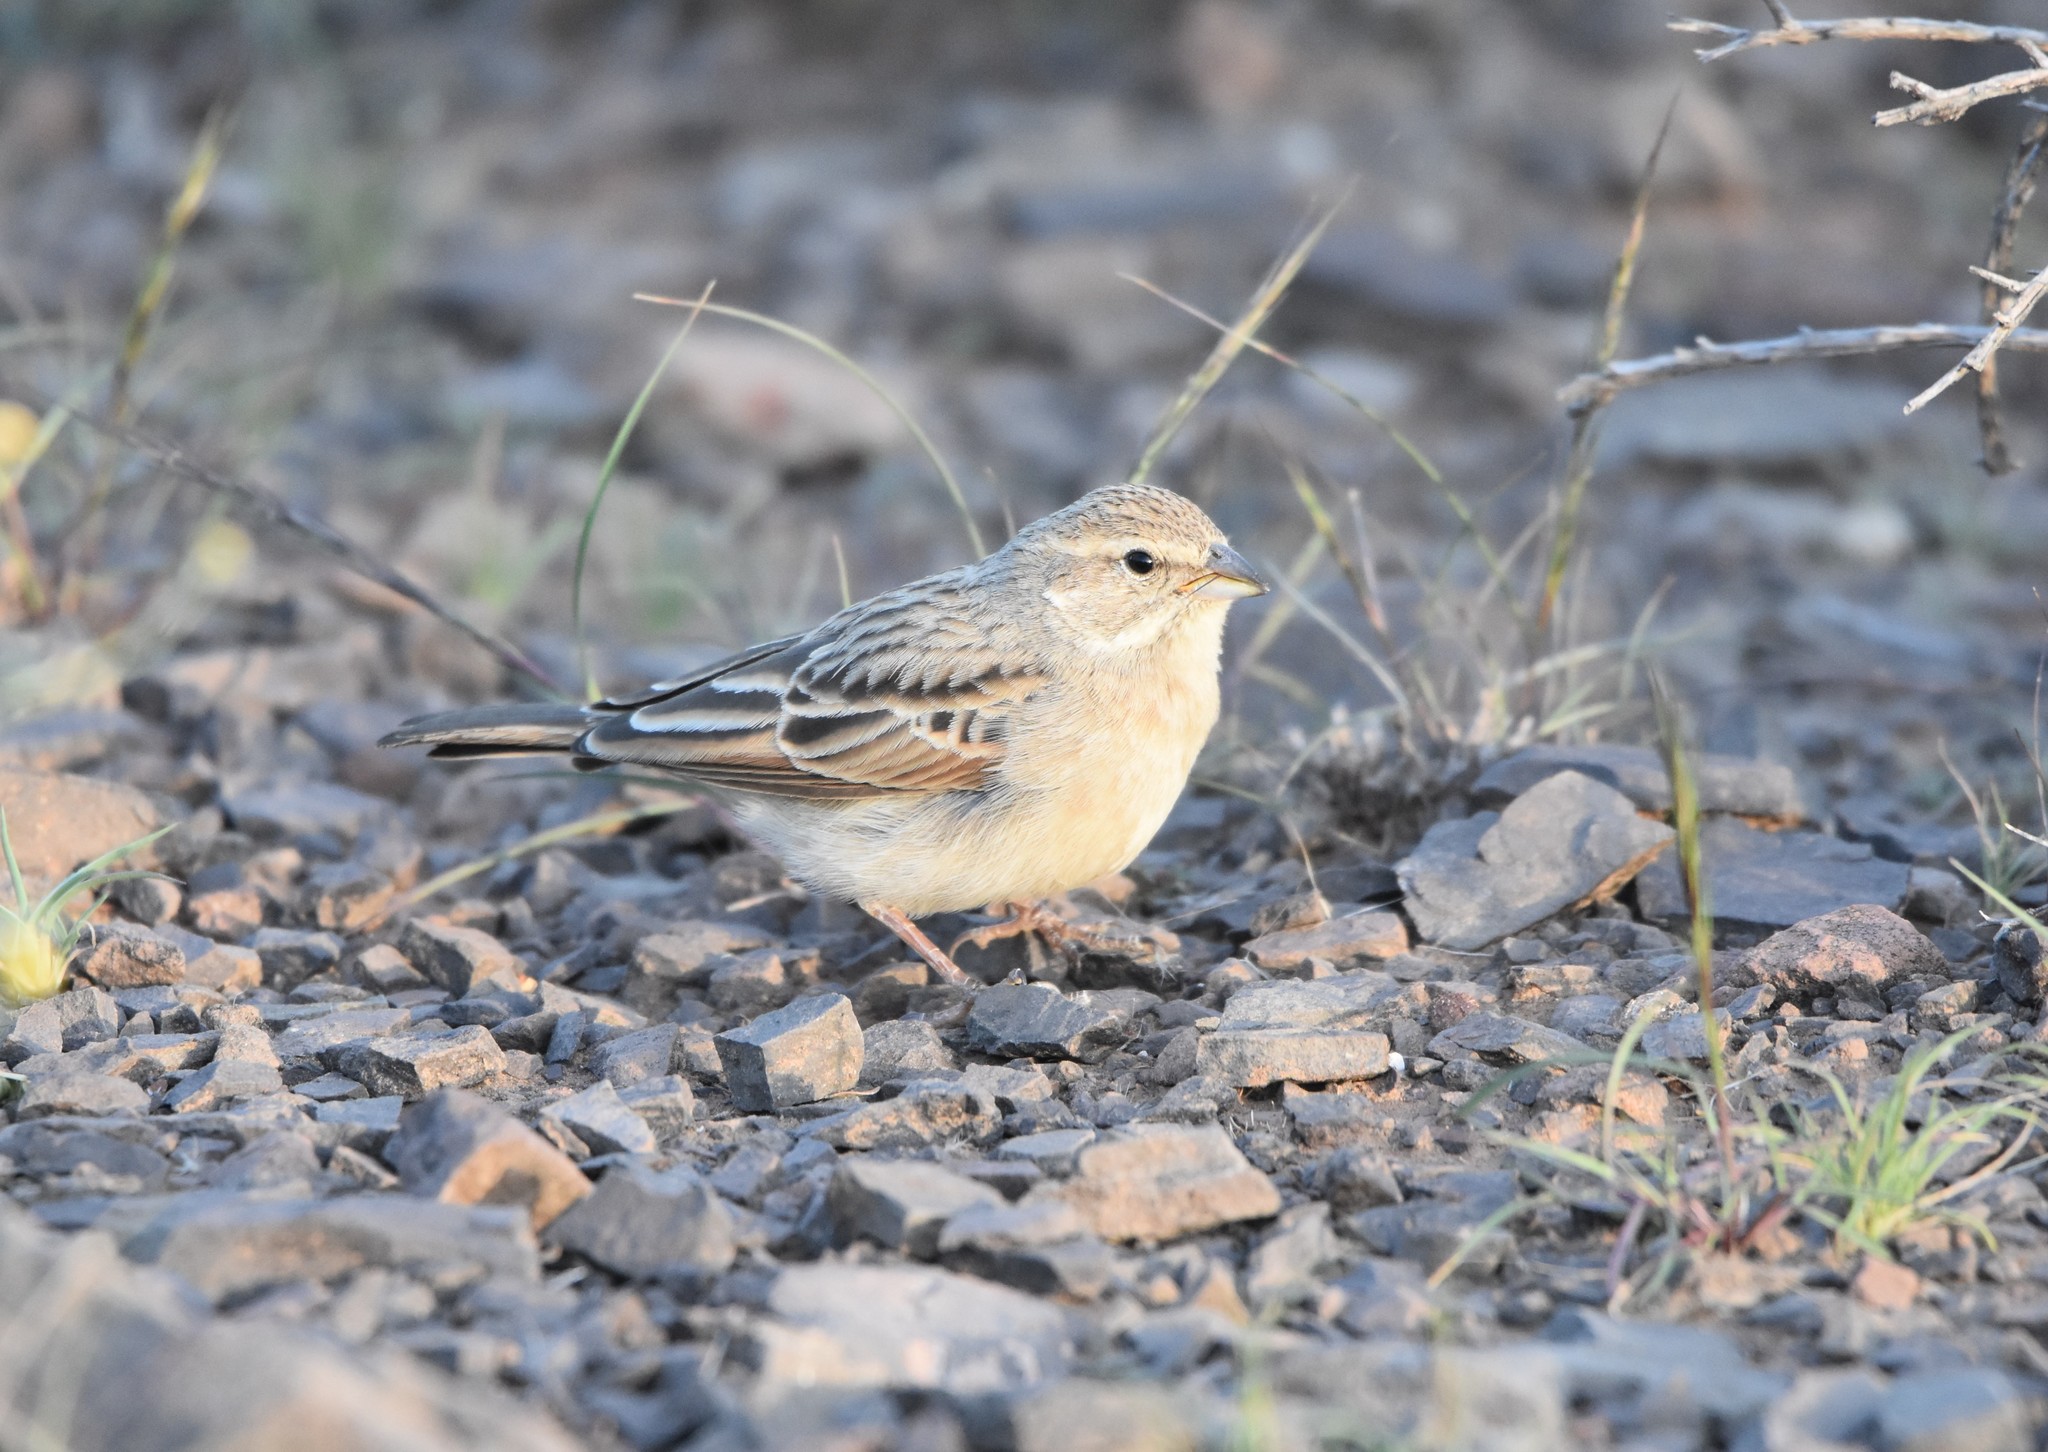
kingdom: Animalia
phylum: Chordata
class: Aves
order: Passeriformes
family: Emberizidae
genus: Emberiza
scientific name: Emberiza impetuani
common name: Lark-like bunting
